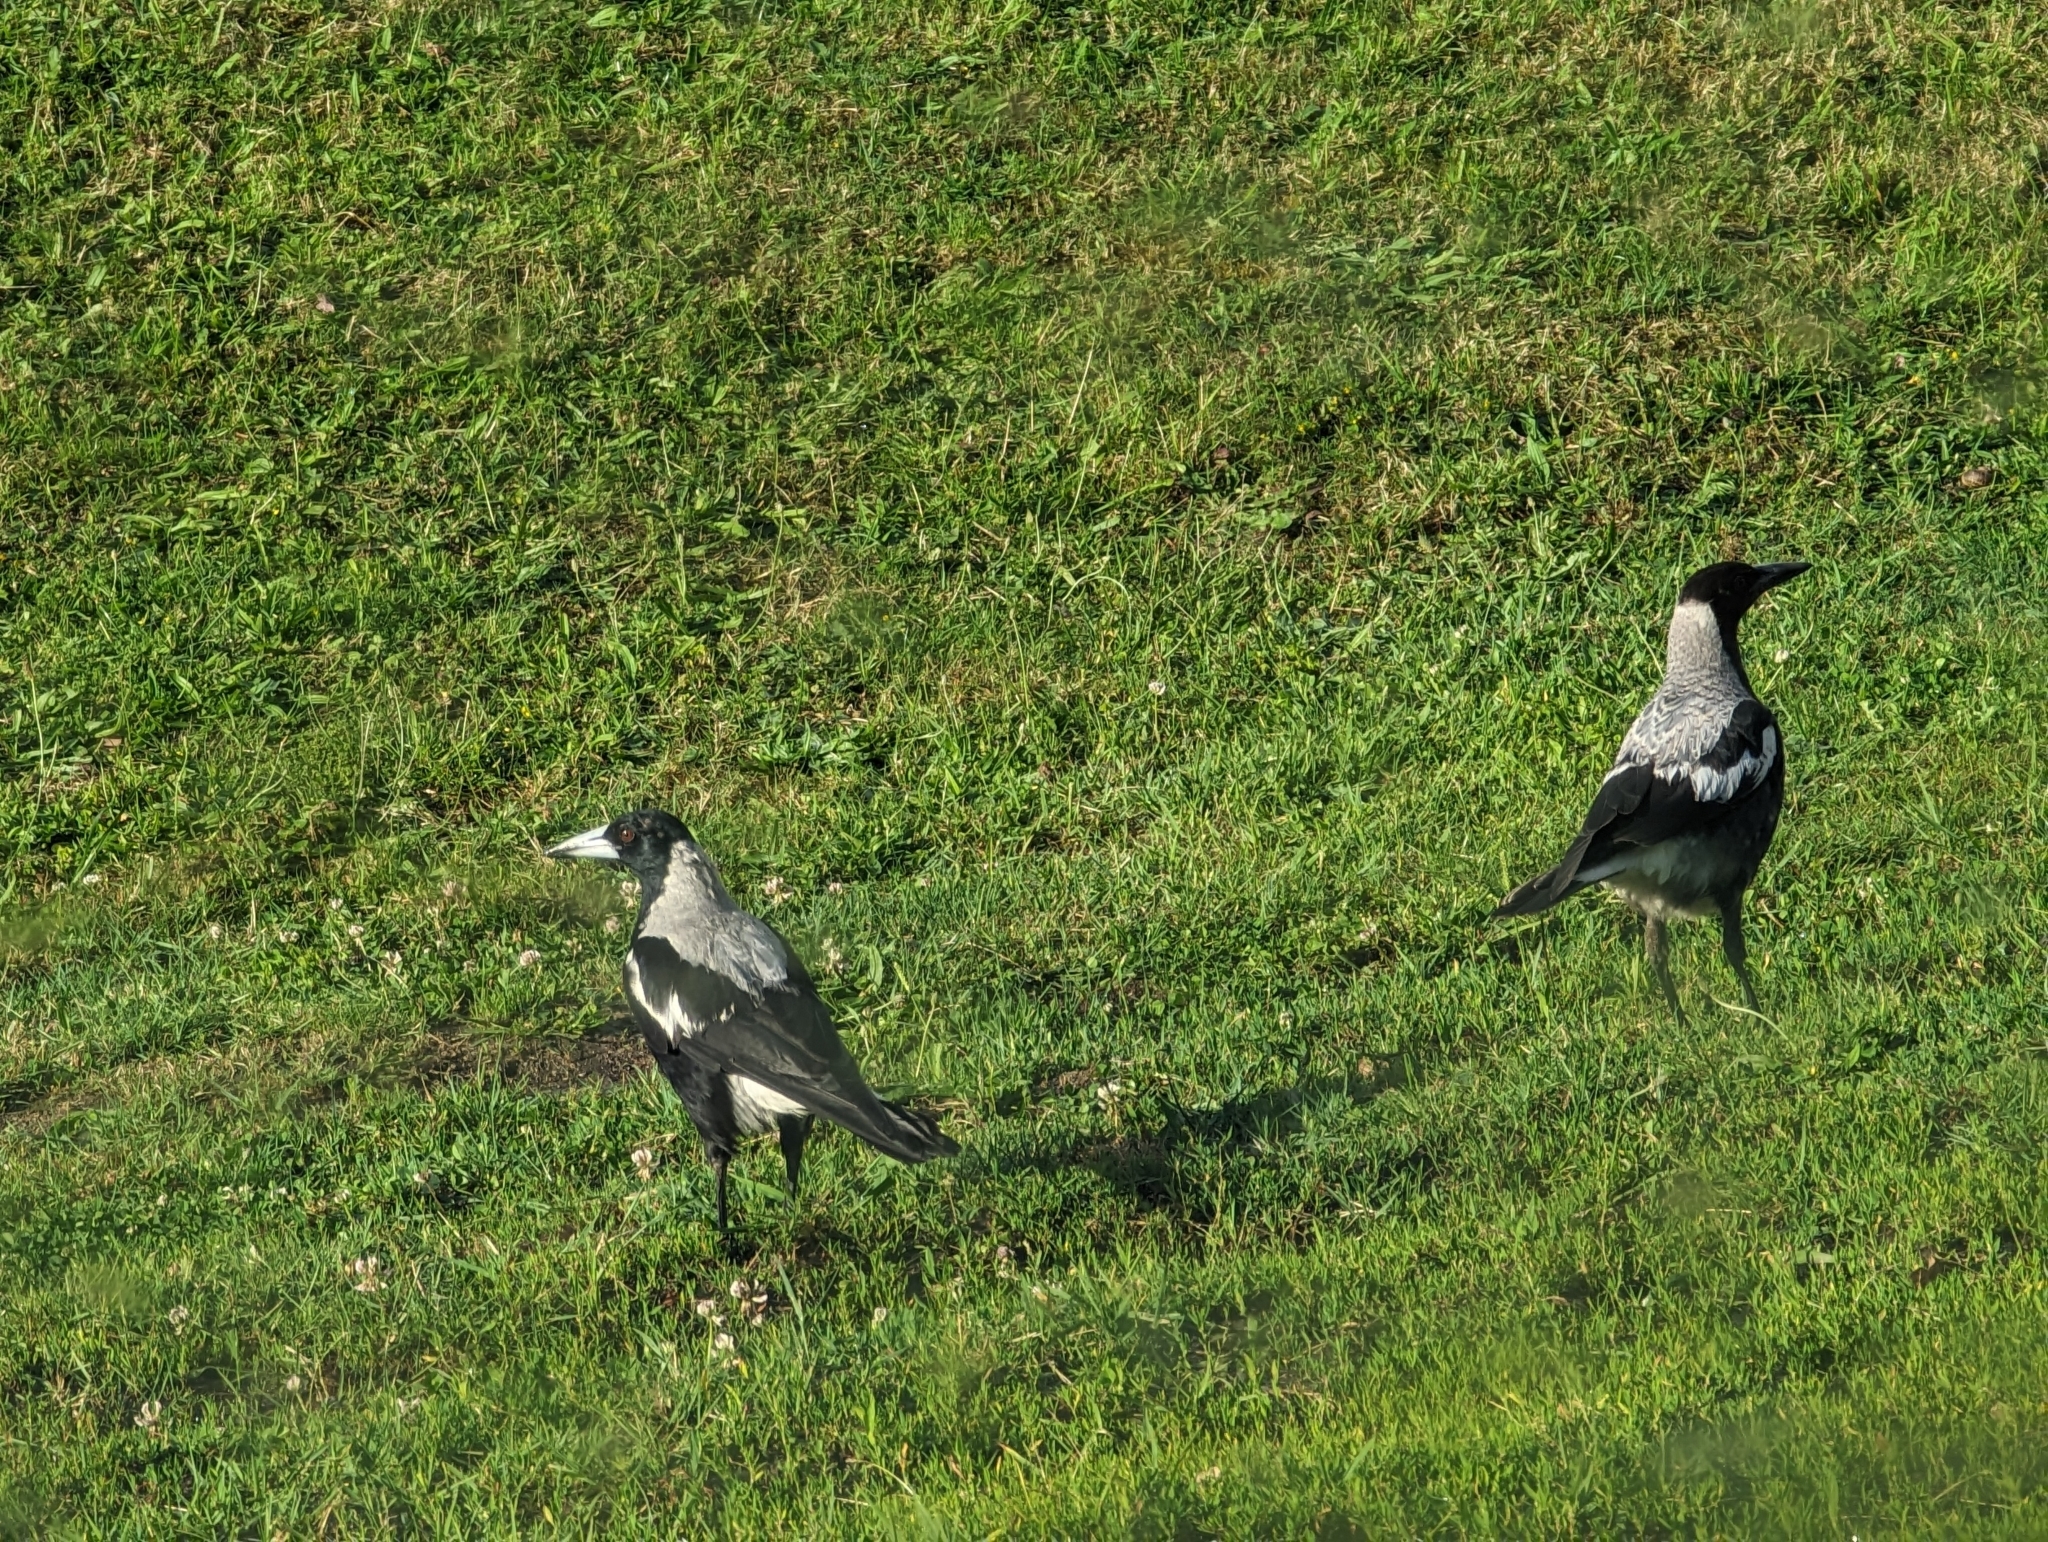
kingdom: Animalia
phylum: Chordata
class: Aves
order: Passeriformes
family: Cracticidae
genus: Gymnorhina
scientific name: Gymnorhina tibicen
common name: Australian magpie
